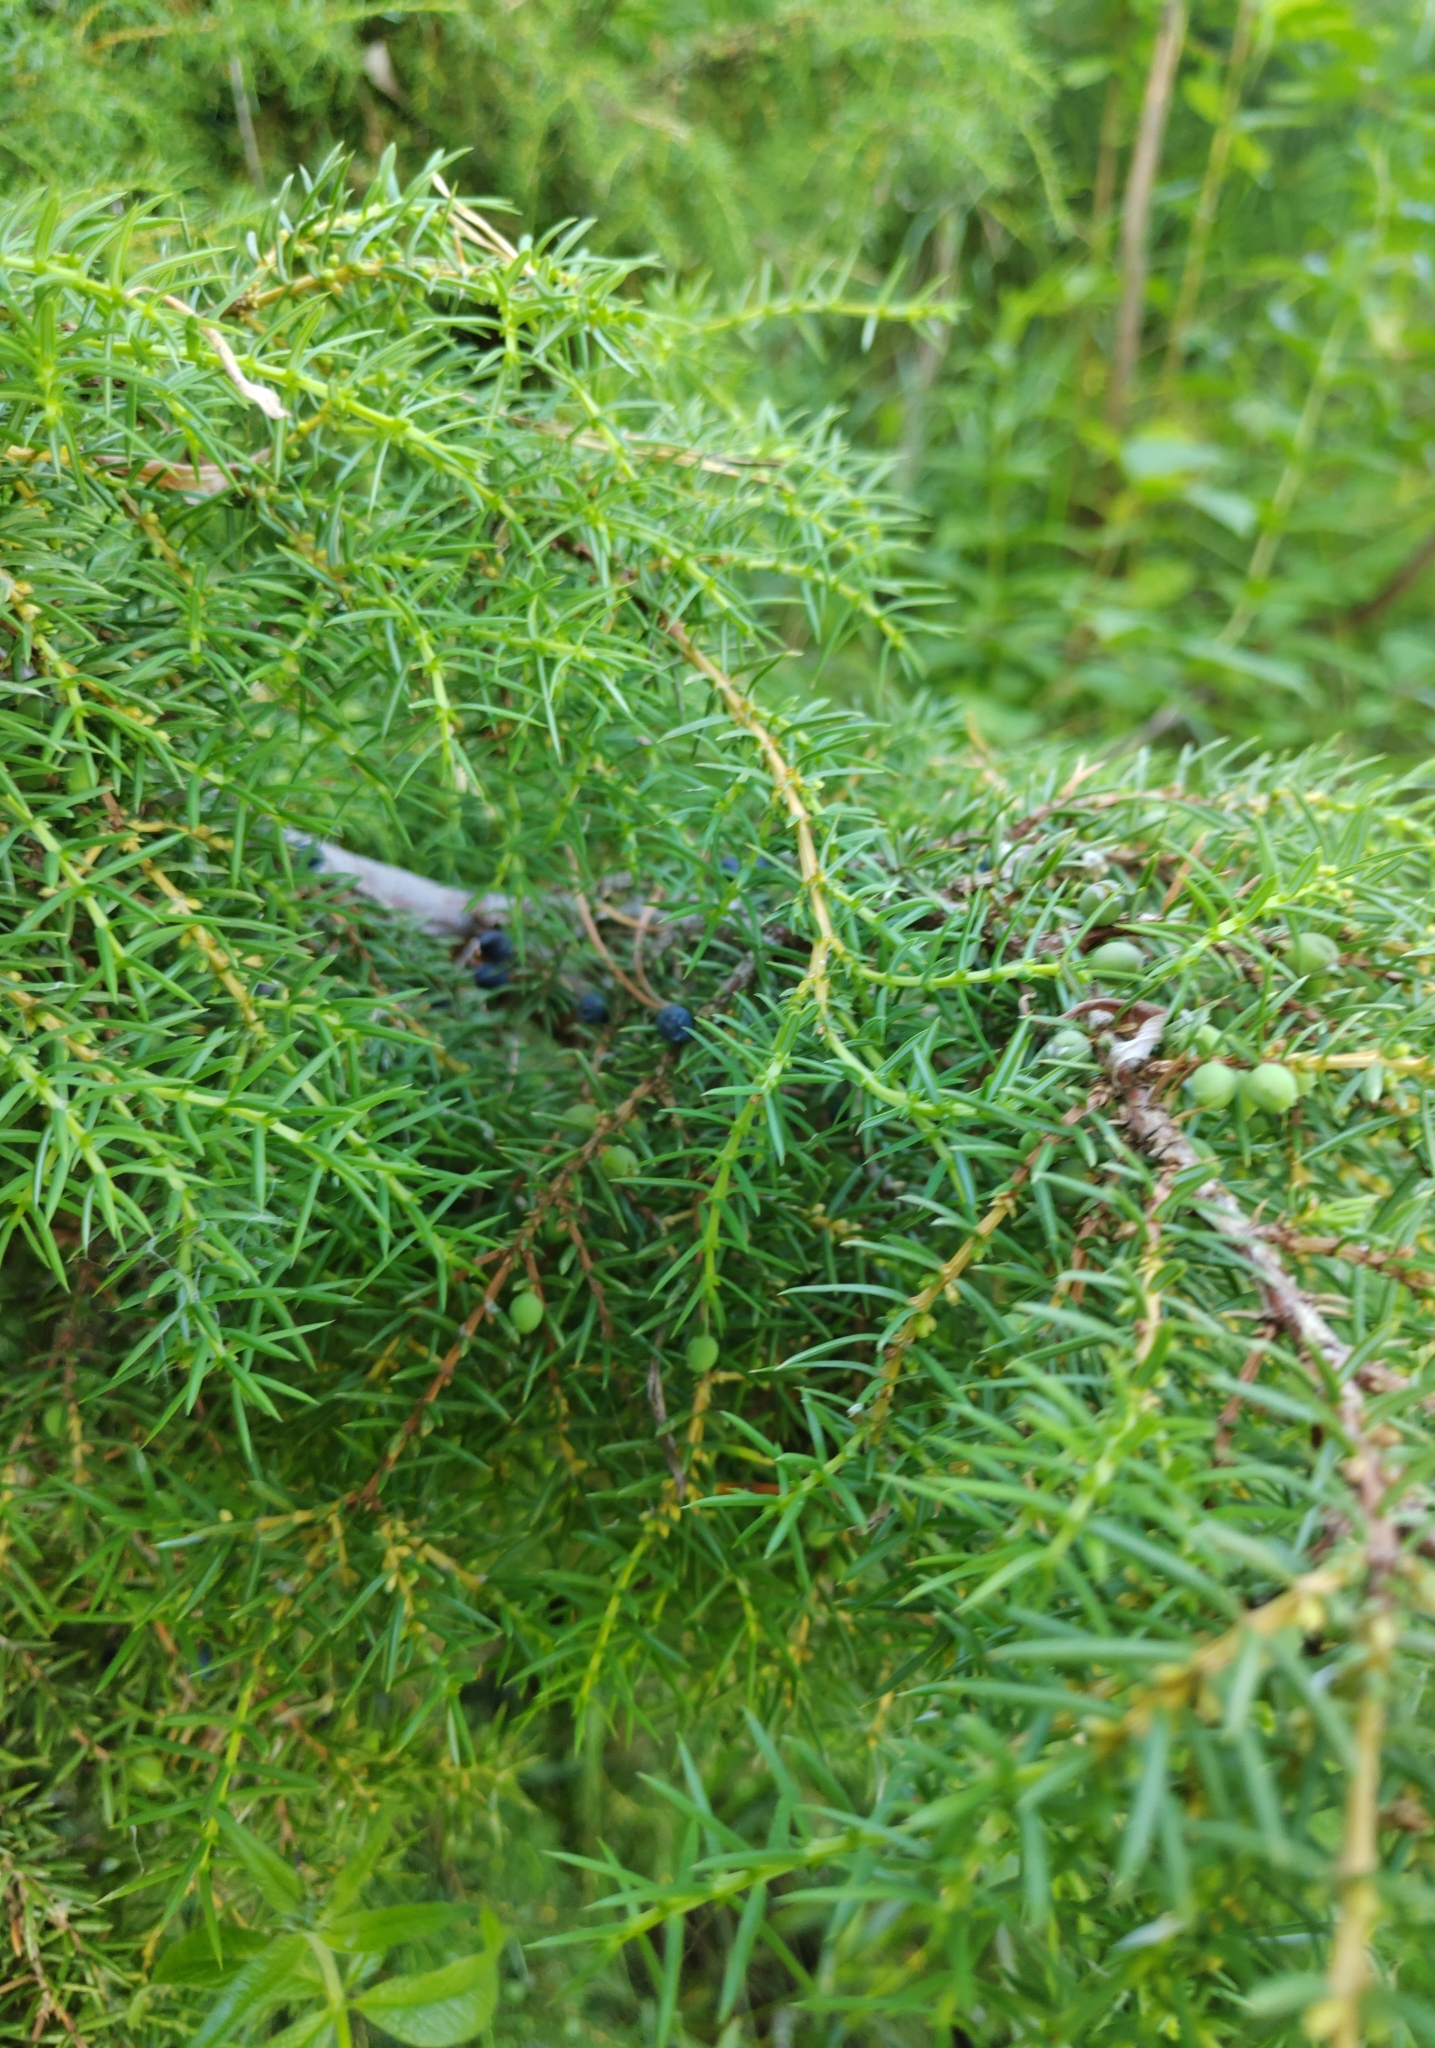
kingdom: Plantae
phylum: Tracheophyta
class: Pinopsida
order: Pinales
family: Cupressaceae
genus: Juniperus
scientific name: Juniperus communis
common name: Common juniper
